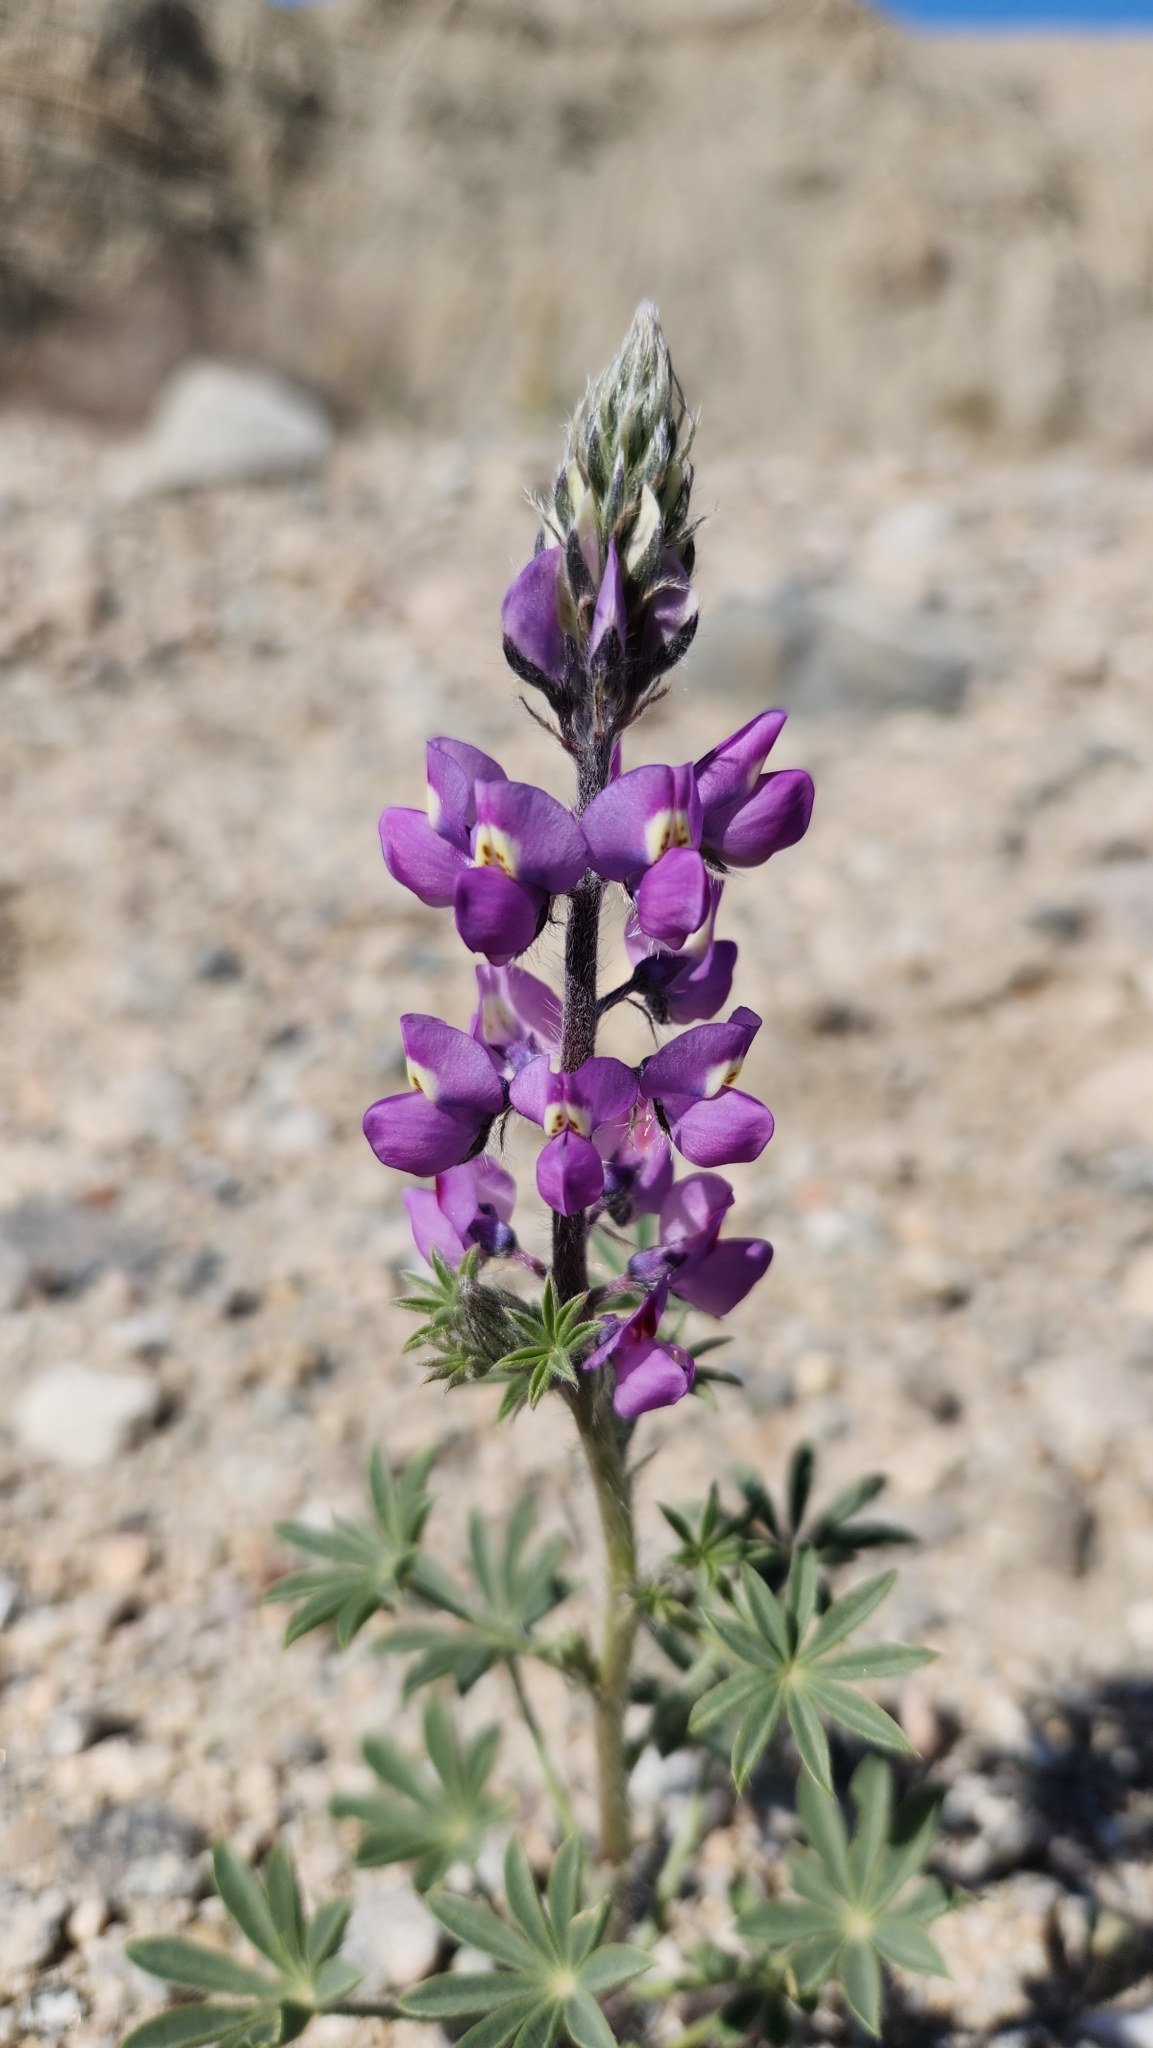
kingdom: Plantae
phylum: Tracheophyta
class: Magnoliopsida
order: Fabales
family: Fabaceae
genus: Lupinus
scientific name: Lupinus arizonicus
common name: Arizona lupine
